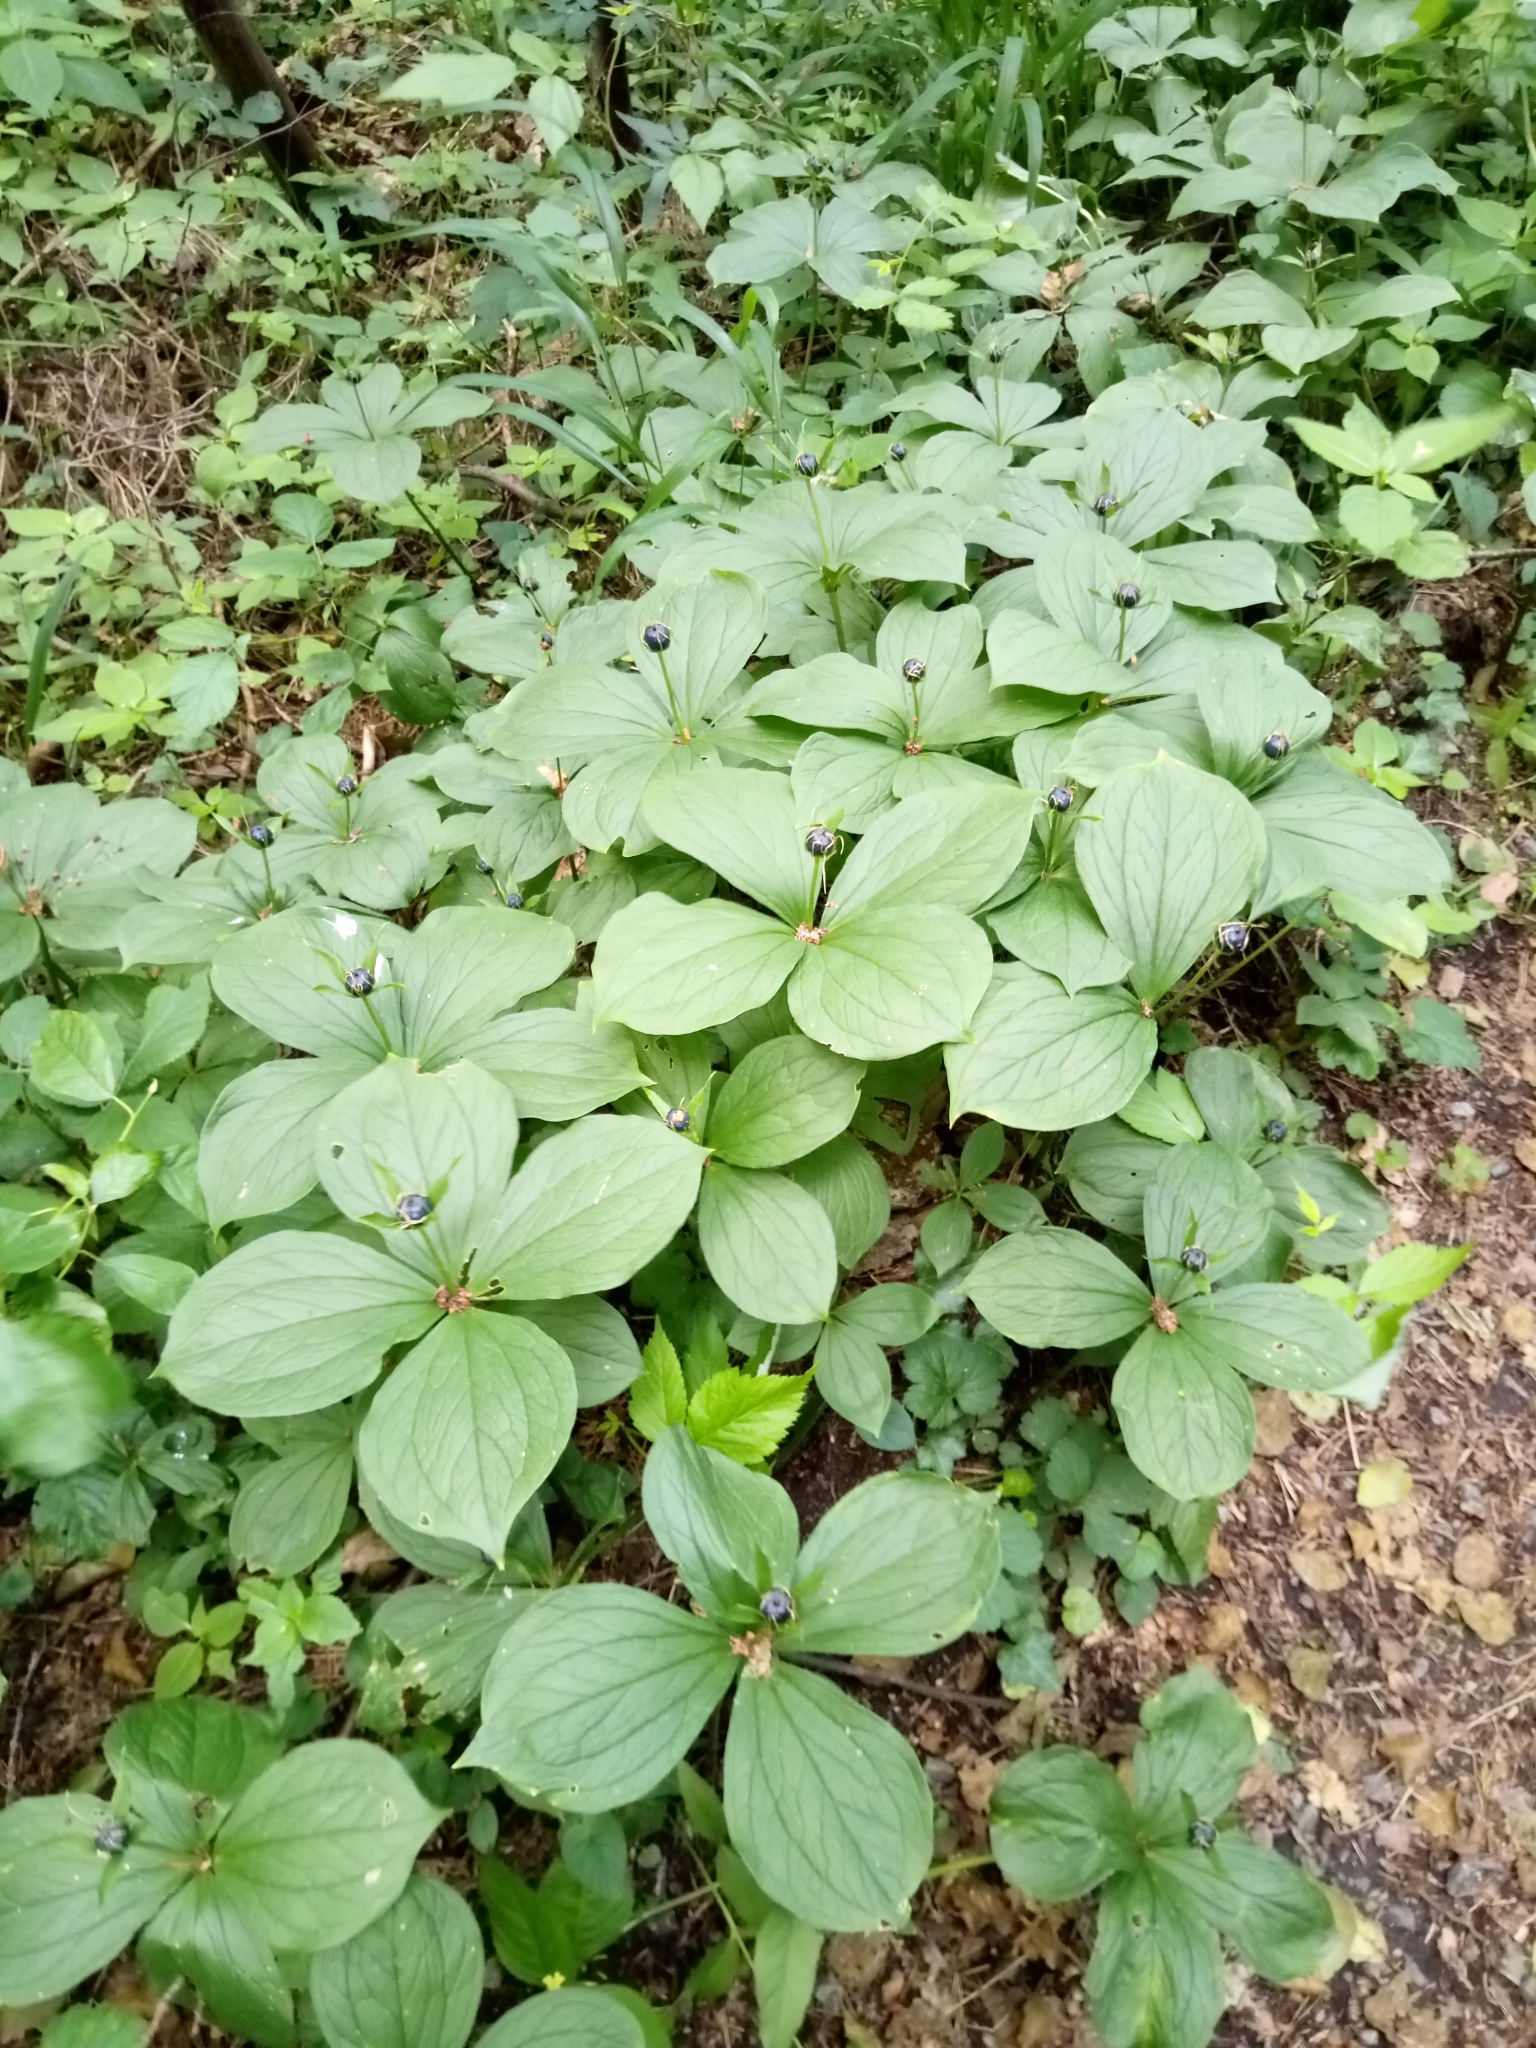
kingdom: Plantae
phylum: Tracheophyta
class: Liliopsida
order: Liliales
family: Melanthiaceae
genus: Paris
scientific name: Paris quadrifolia
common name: Herb-paris
